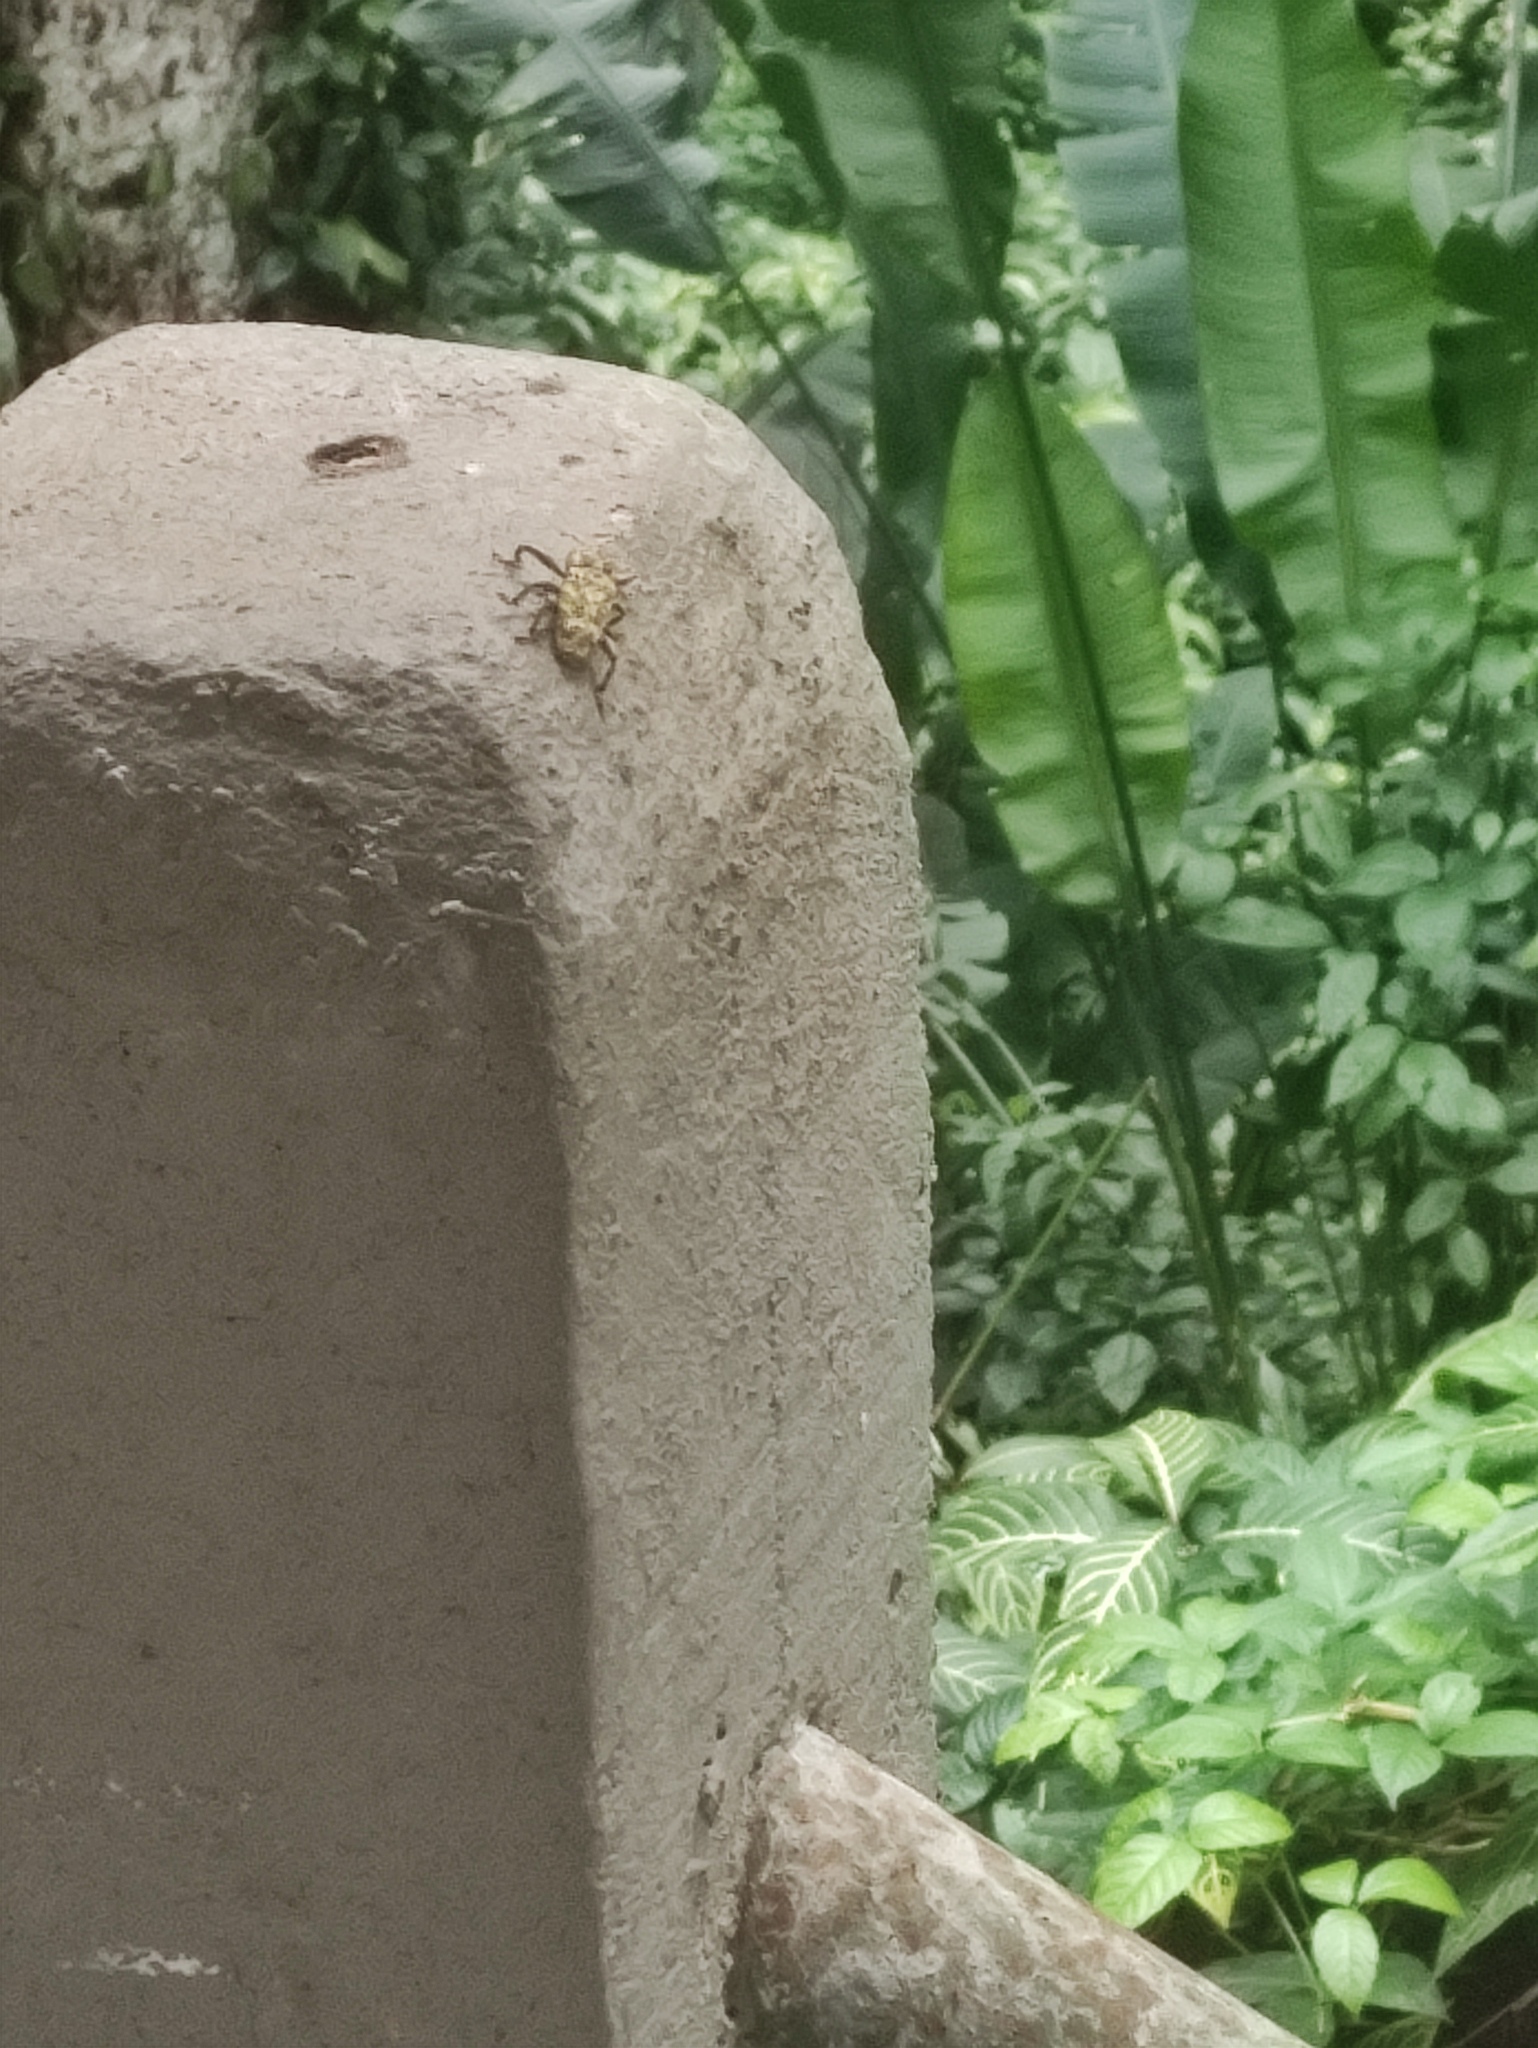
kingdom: Animalia
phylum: Arthropoda
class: Insecta
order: Coleoptera
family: Curculionidae
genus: Ameris
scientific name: Ameris ynca
